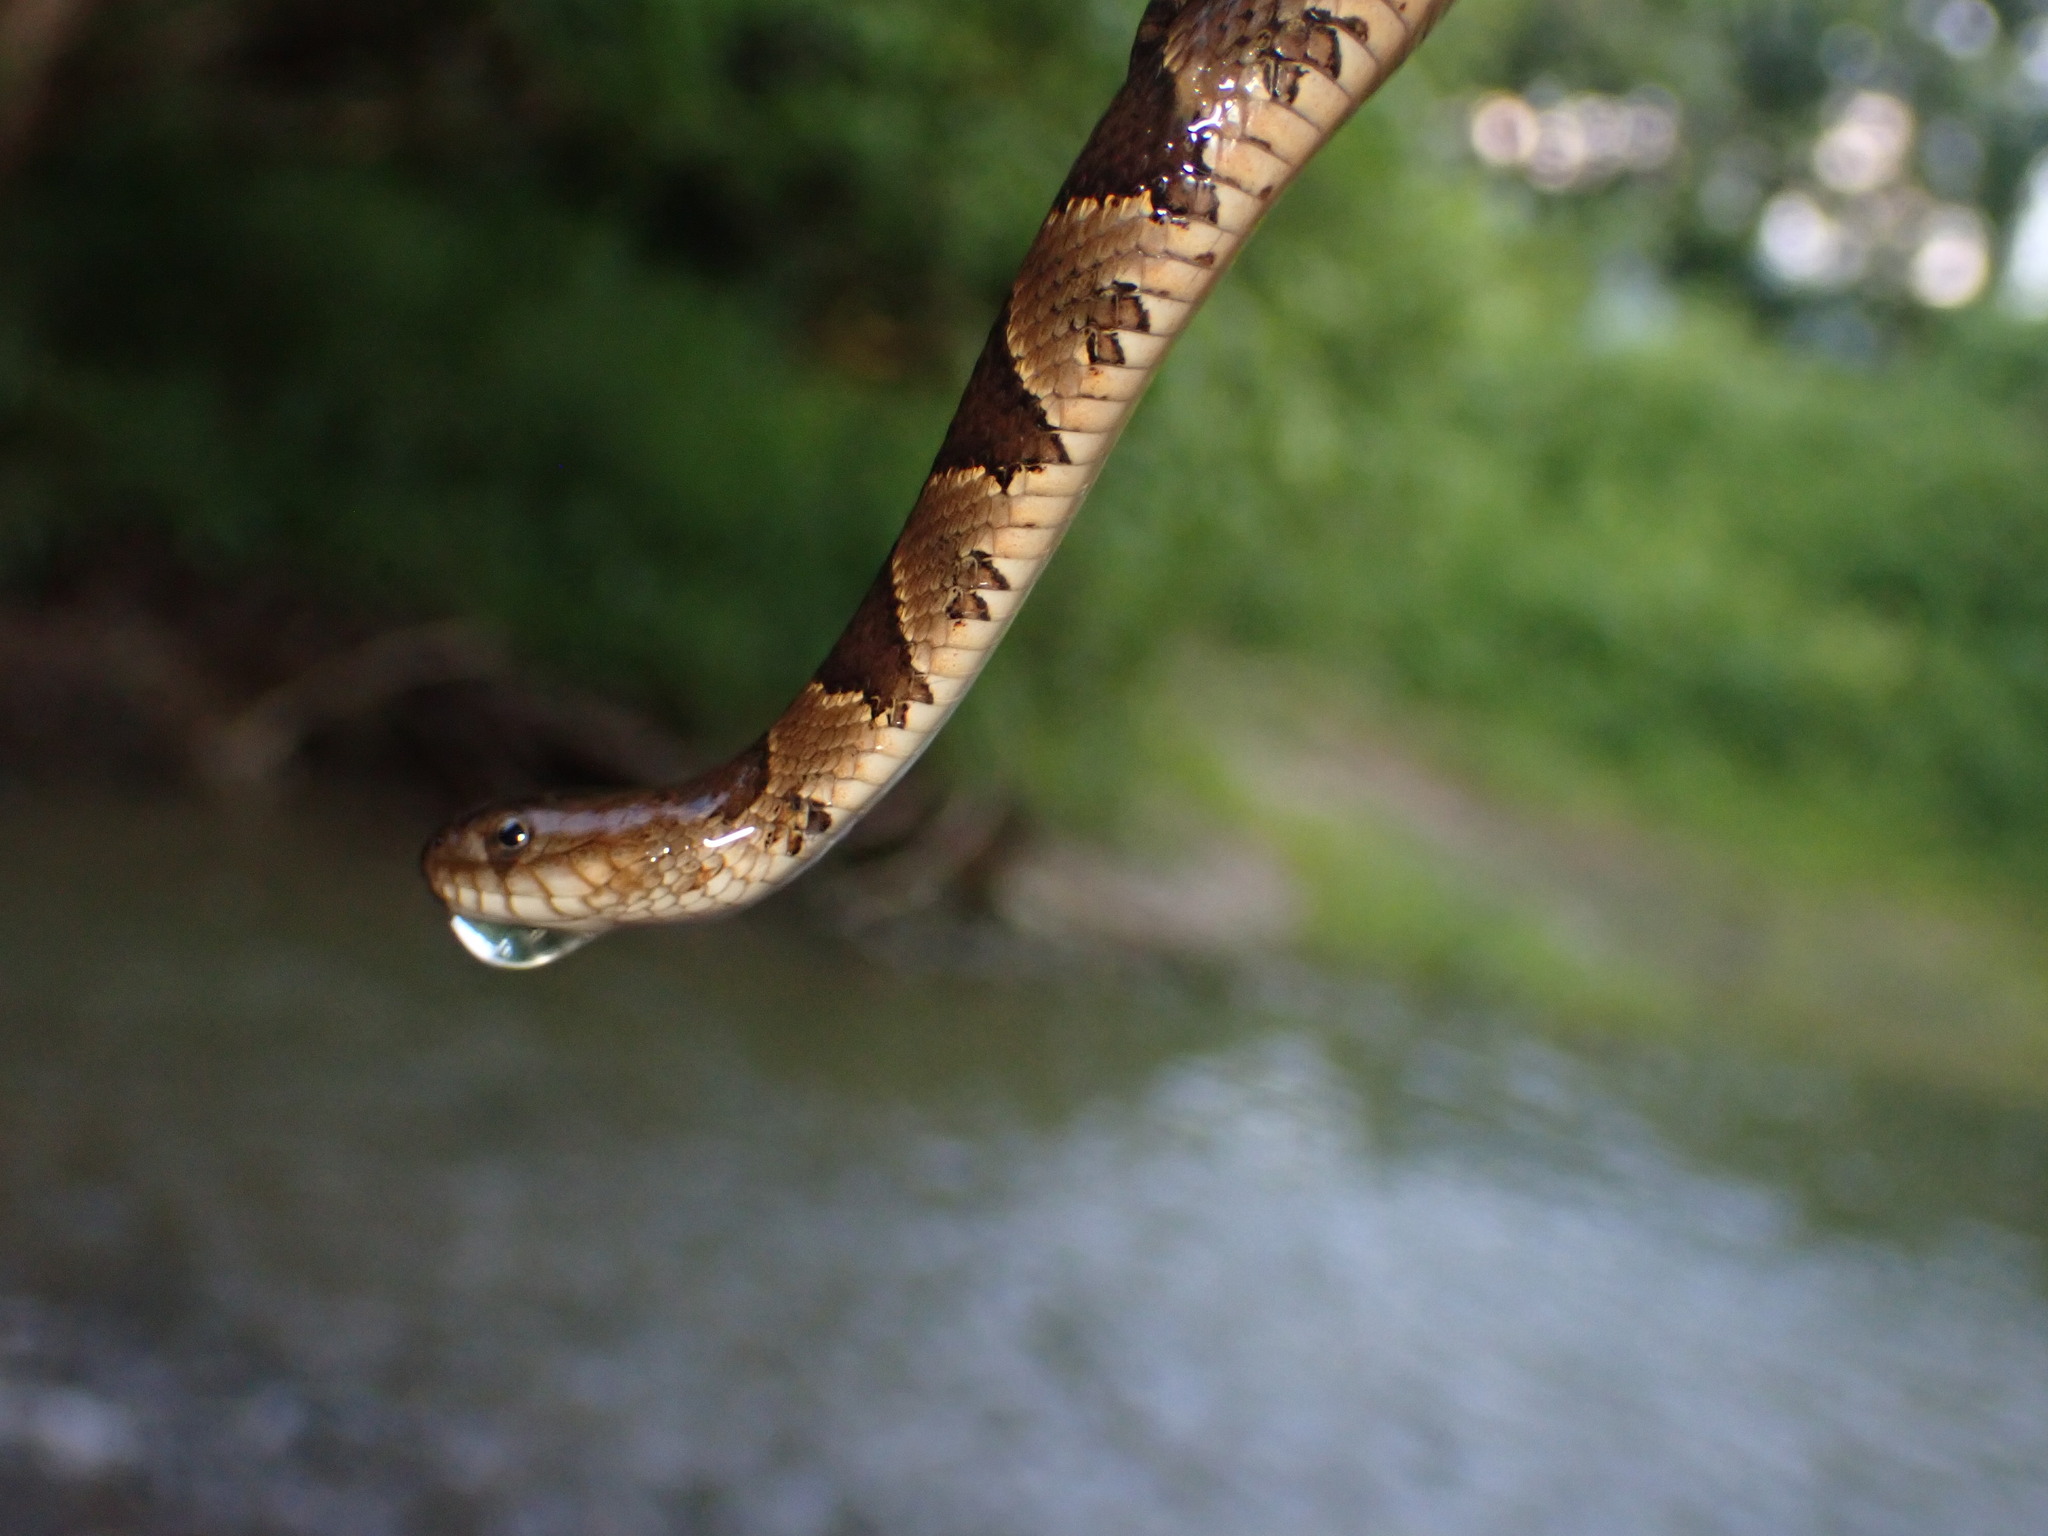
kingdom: Animalia
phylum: Chordata
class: Squamata
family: Colubridae
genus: Nerodia
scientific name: Nerodia sipedon
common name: Northern water snake
